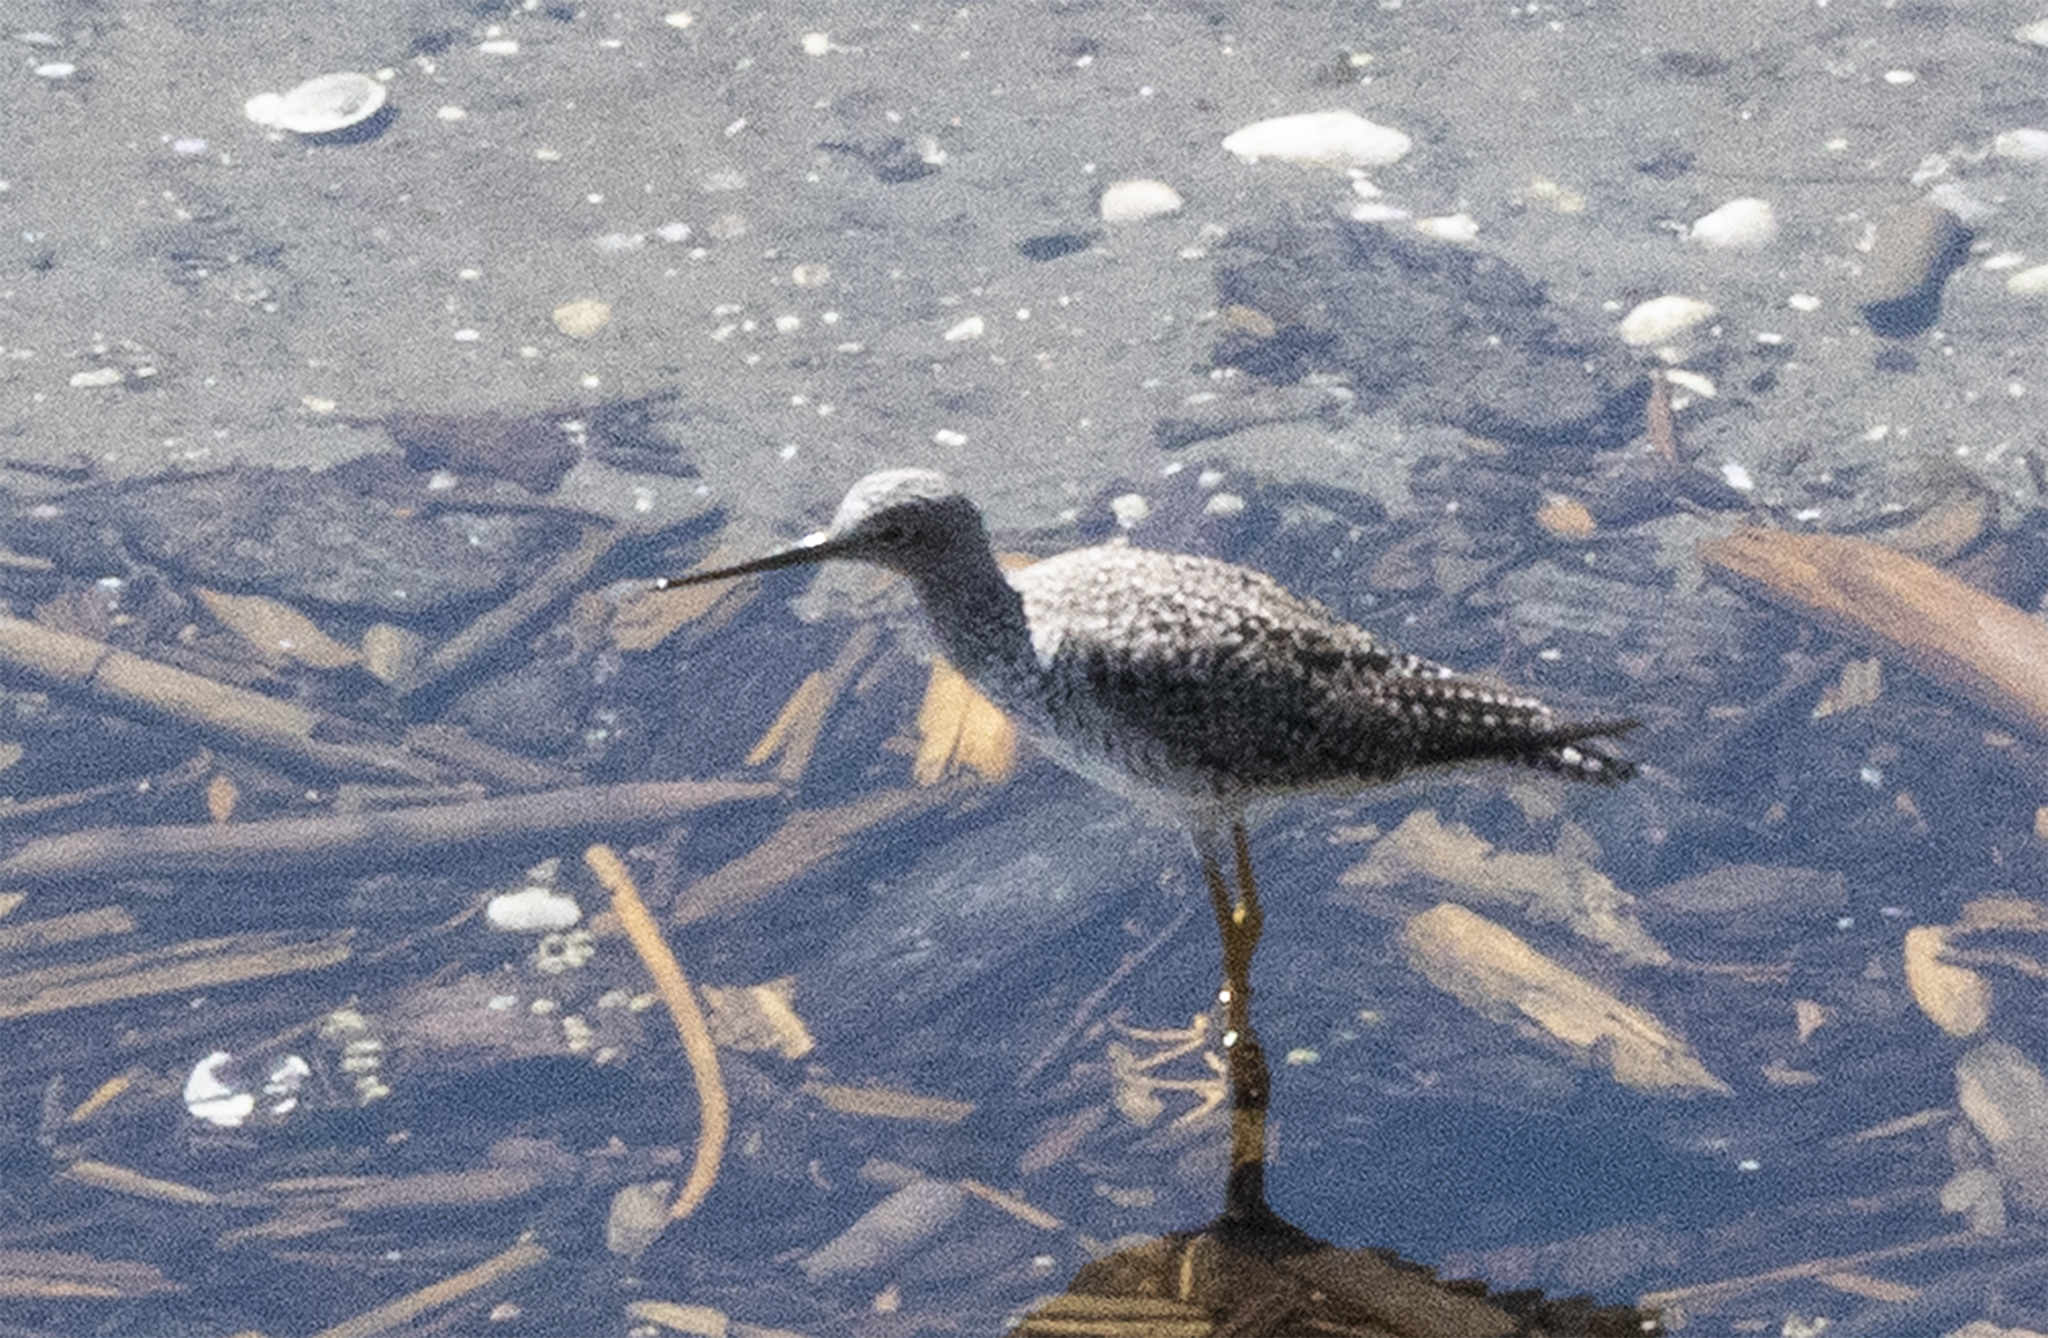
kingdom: Animalia
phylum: Chordata
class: Aves
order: Charadriiformes
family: Scolopacidae
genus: Tringa
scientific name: Tringa melanoleuca
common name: Greater yellowlegs
